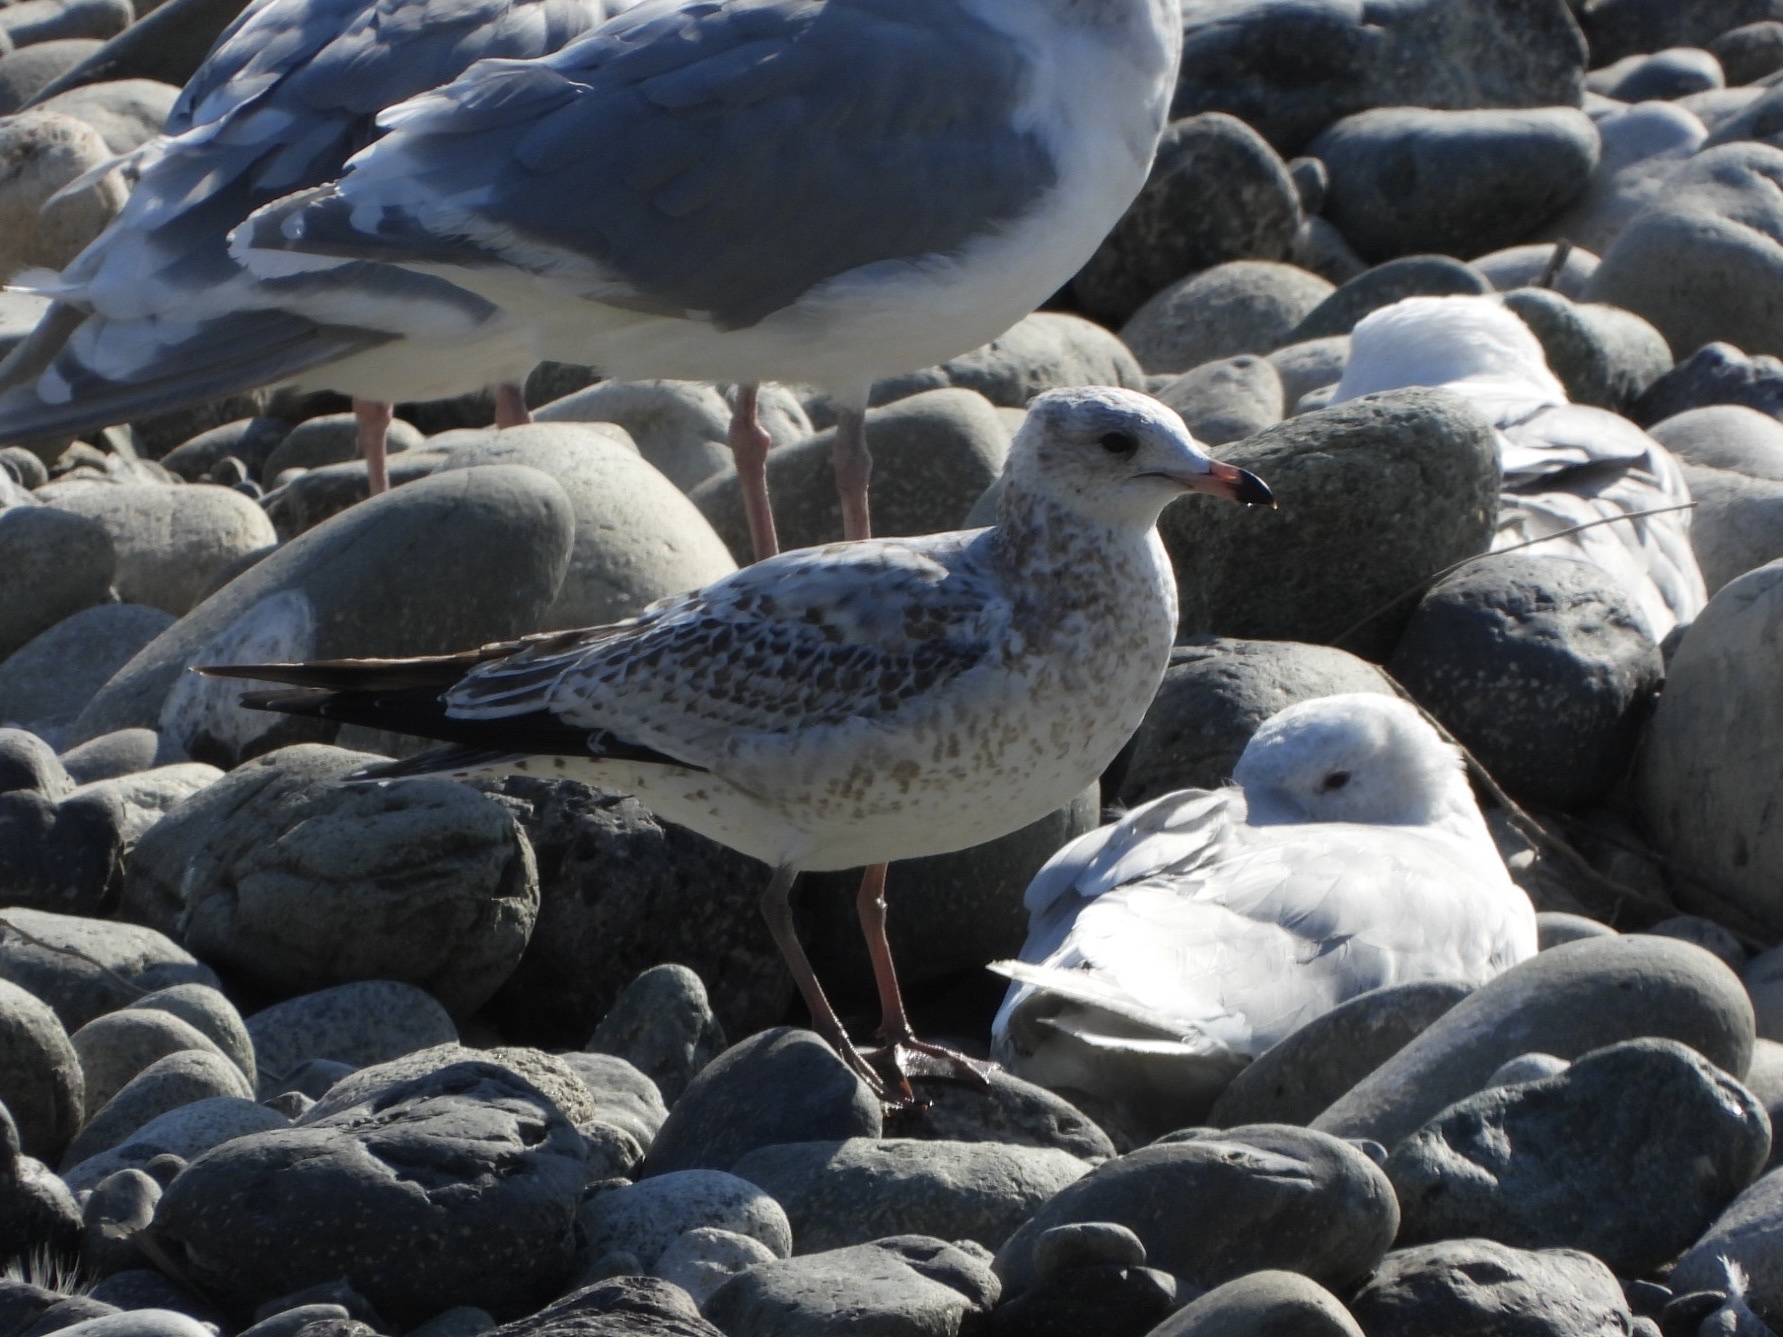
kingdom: Animalia
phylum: Chordata
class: Aves
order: Charadriiformes
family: Laridae
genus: Larus
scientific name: Larus delawarensis
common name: Ring-billed gull
